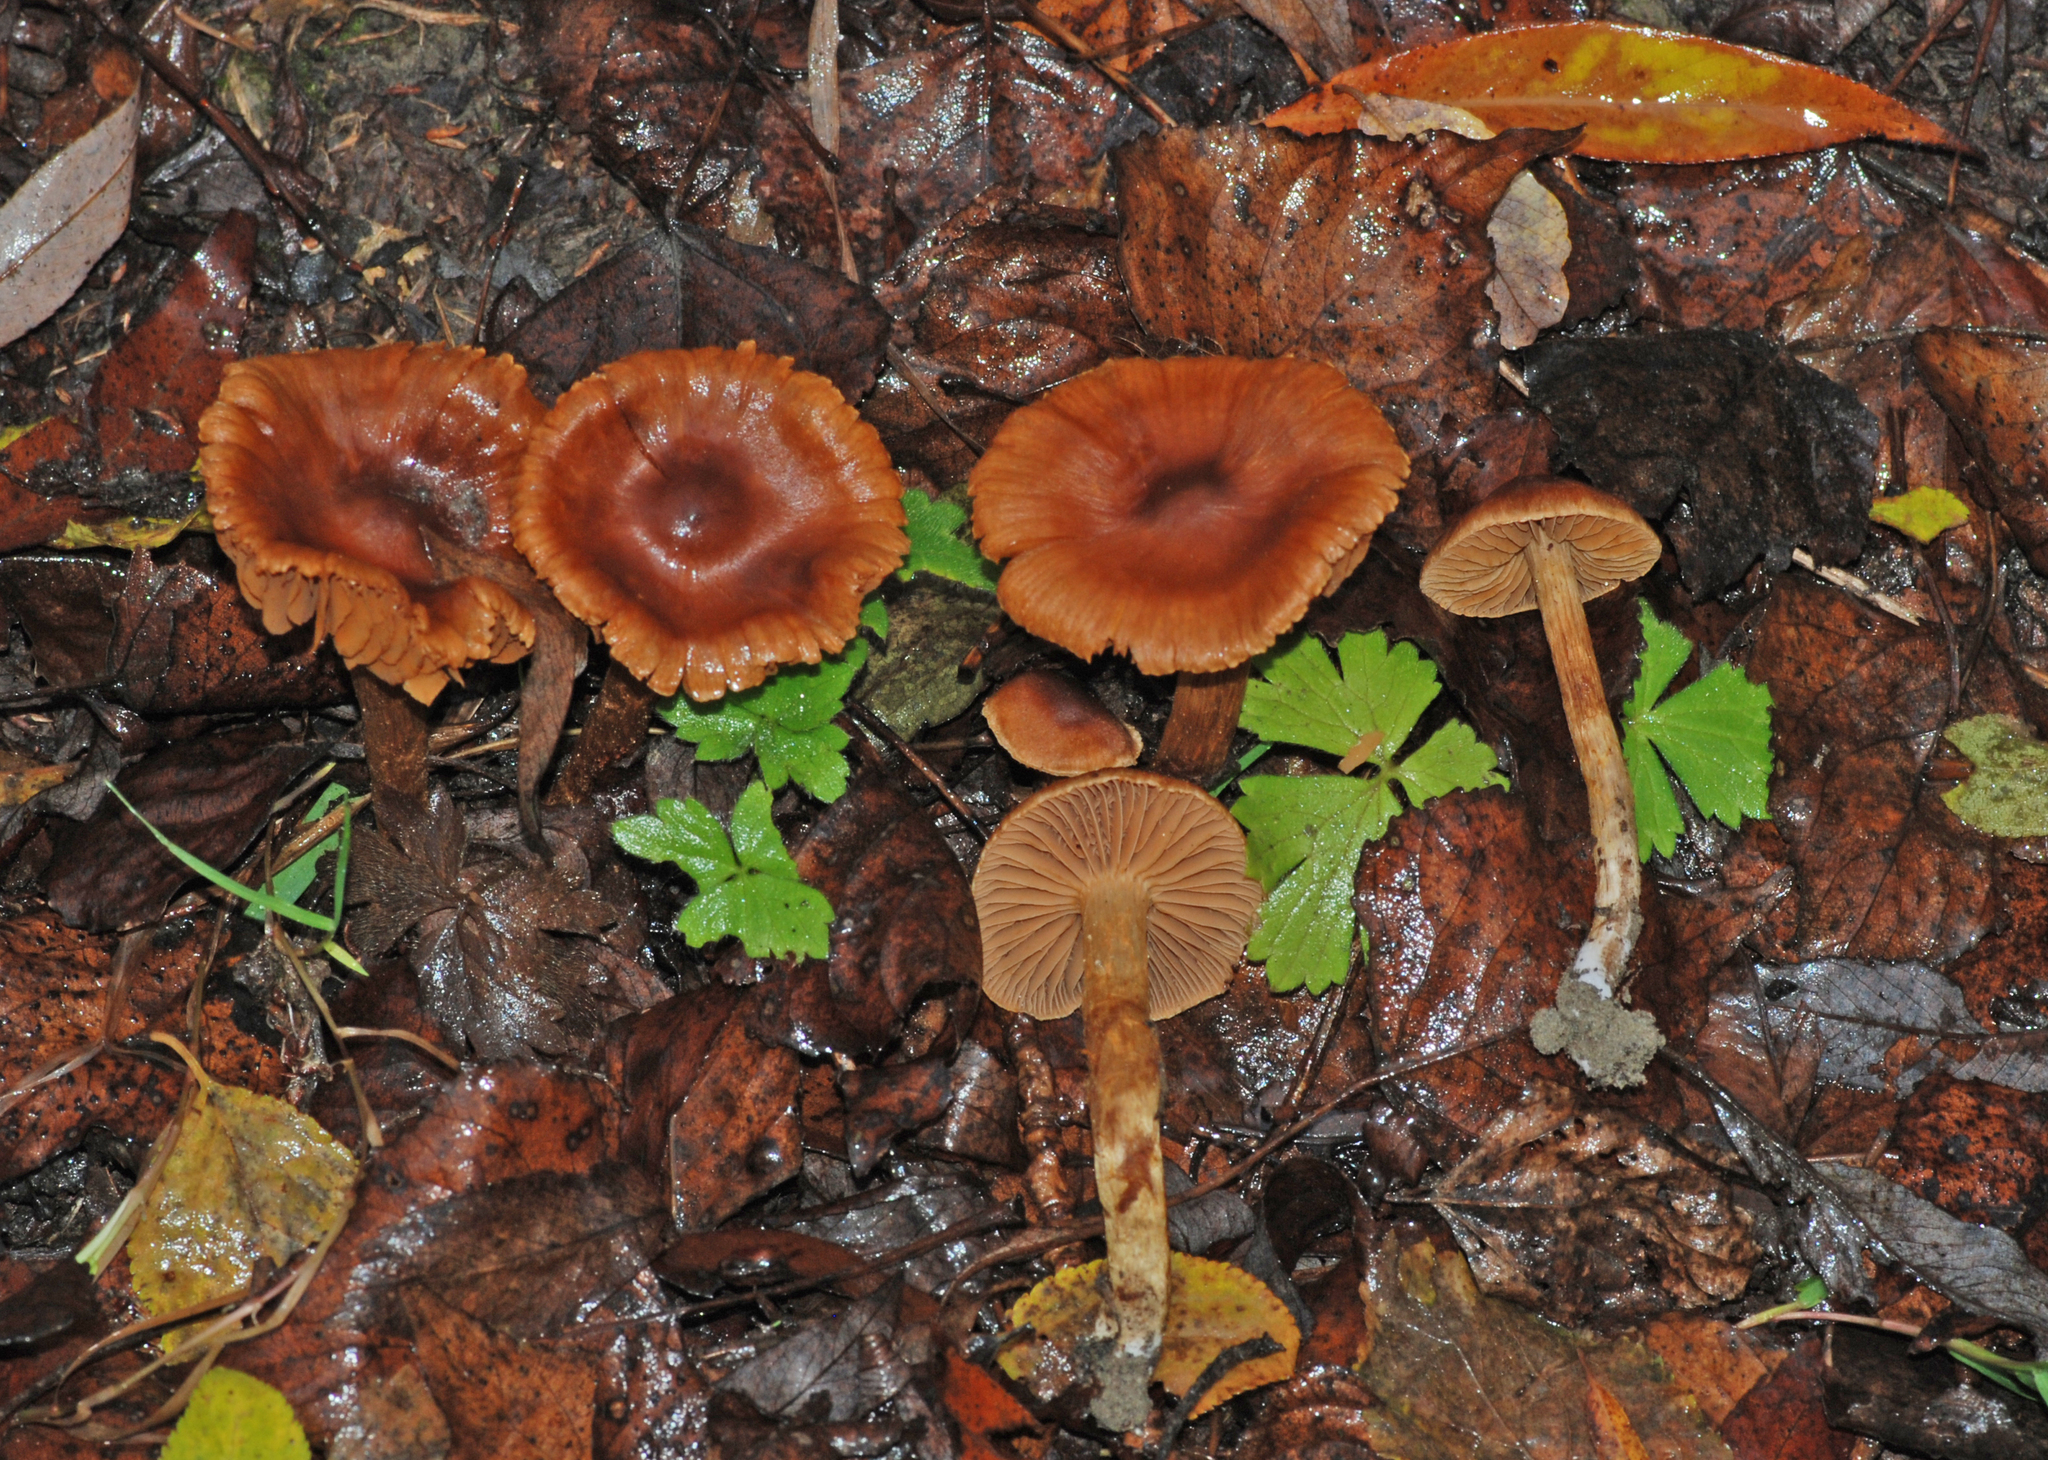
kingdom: Fungi
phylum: Basidiomycota
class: Agaricomycetes
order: Agaricales
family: Cortinariaceae
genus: Cortinarius
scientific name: Cortinarius paludosaniosus
